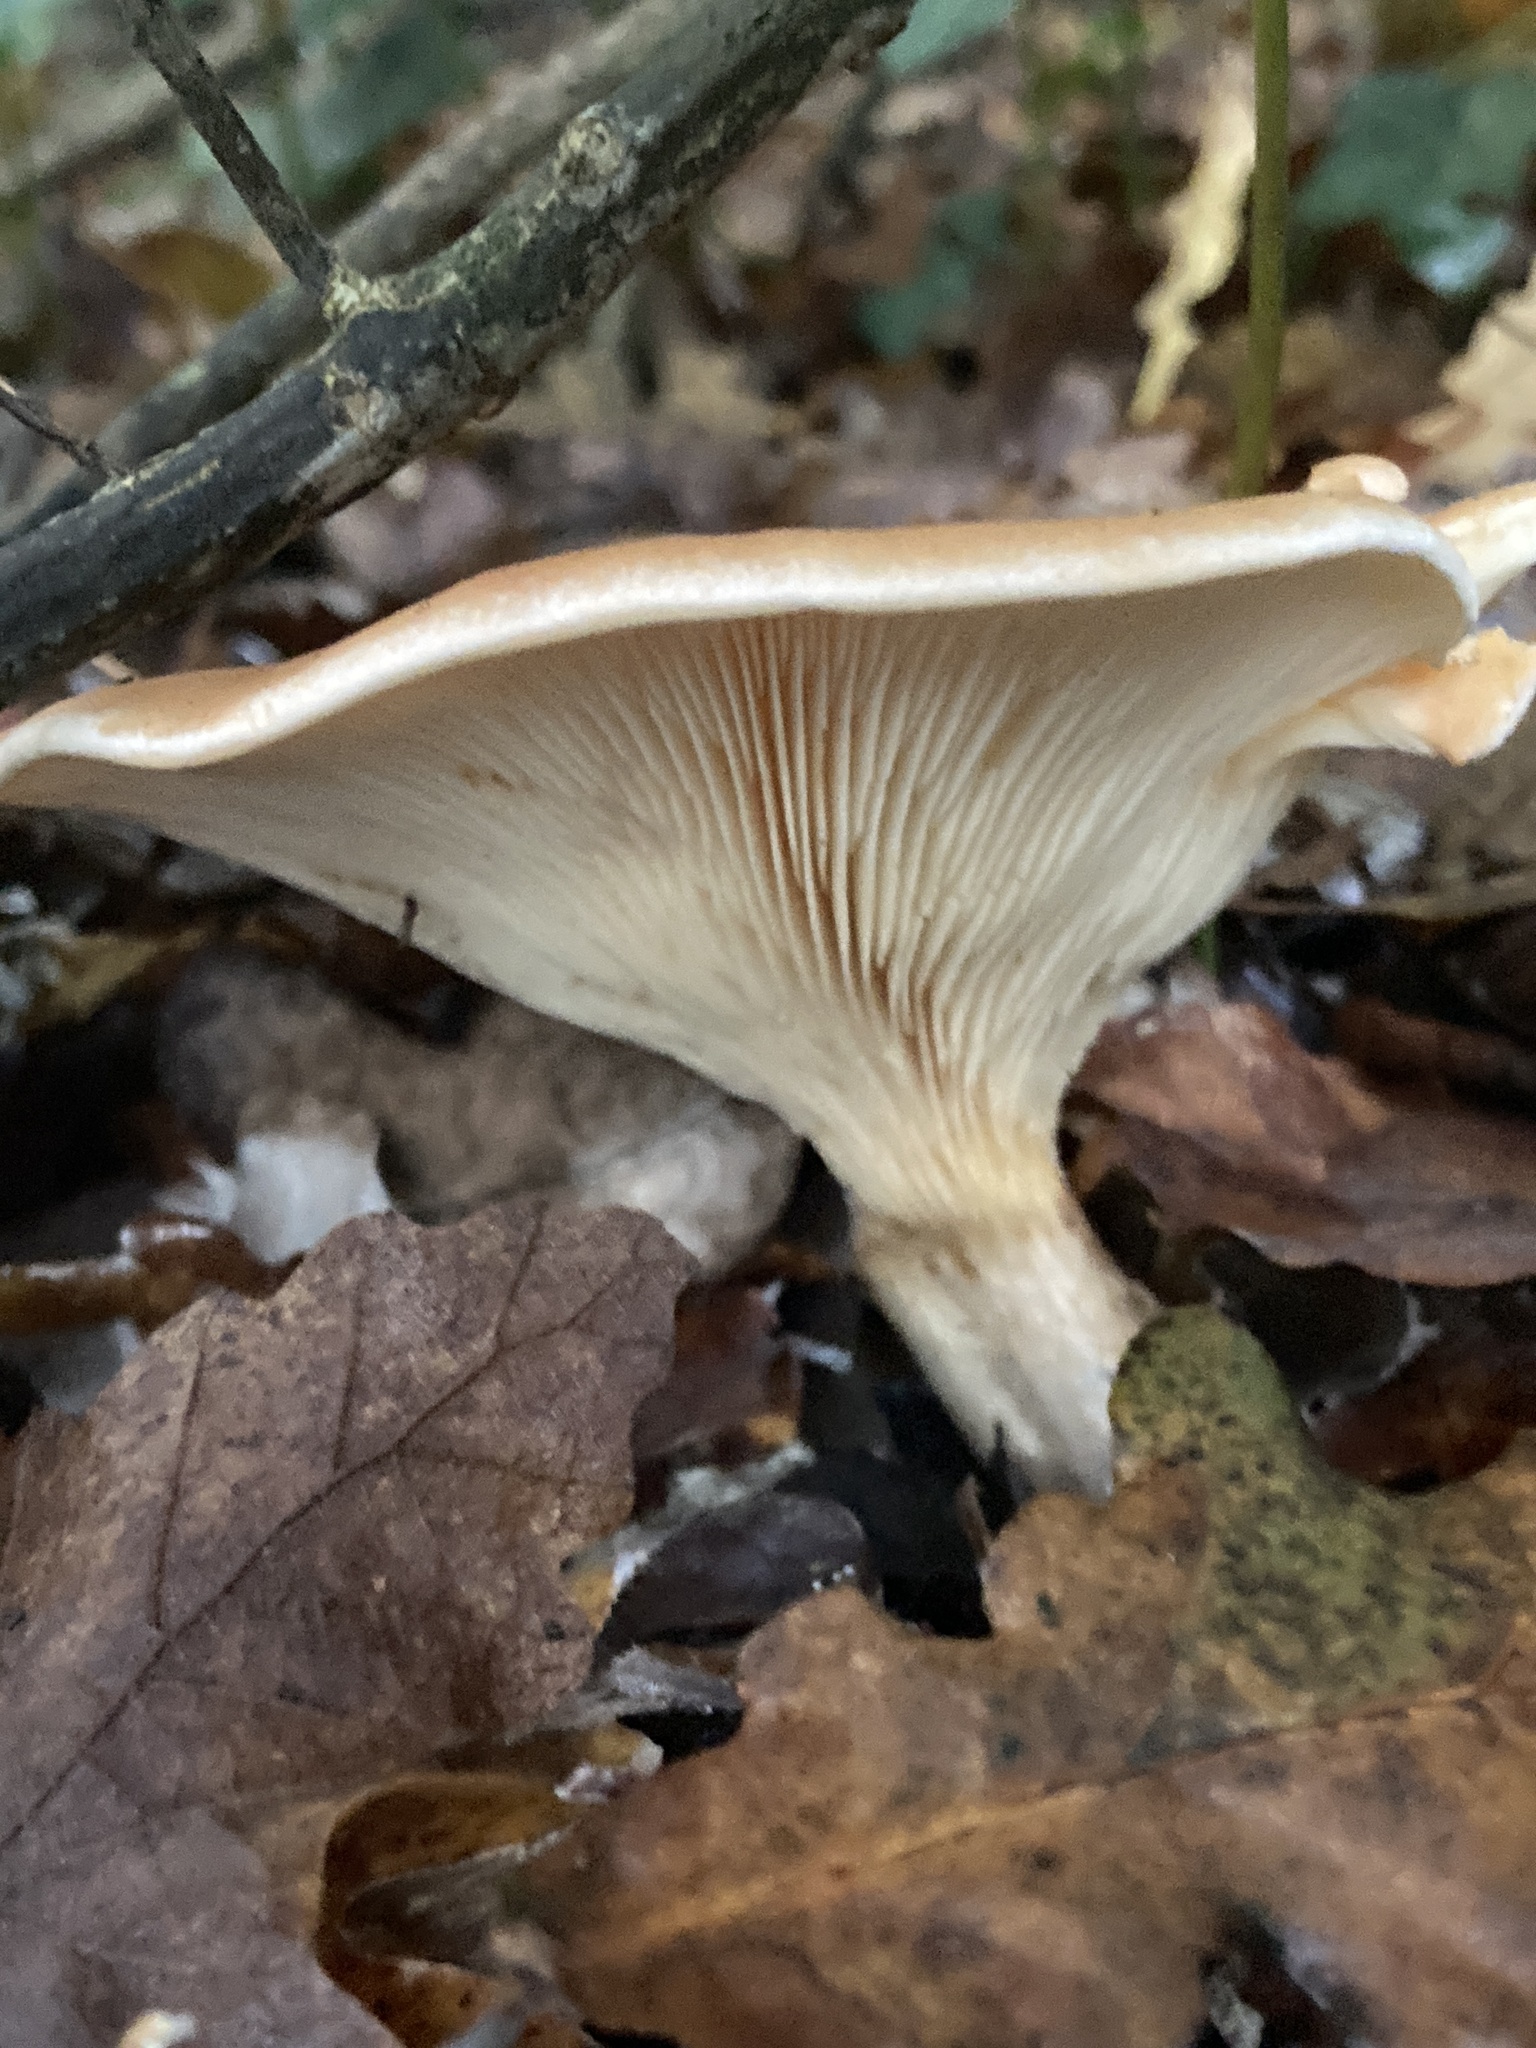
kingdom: Fungi
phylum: Basidiomycota
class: Agaricomycetes
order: Agaricales
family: Tricholomataceae
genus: Paralepista
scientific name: Paralepista flaccida
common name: Tawny funnel cap
